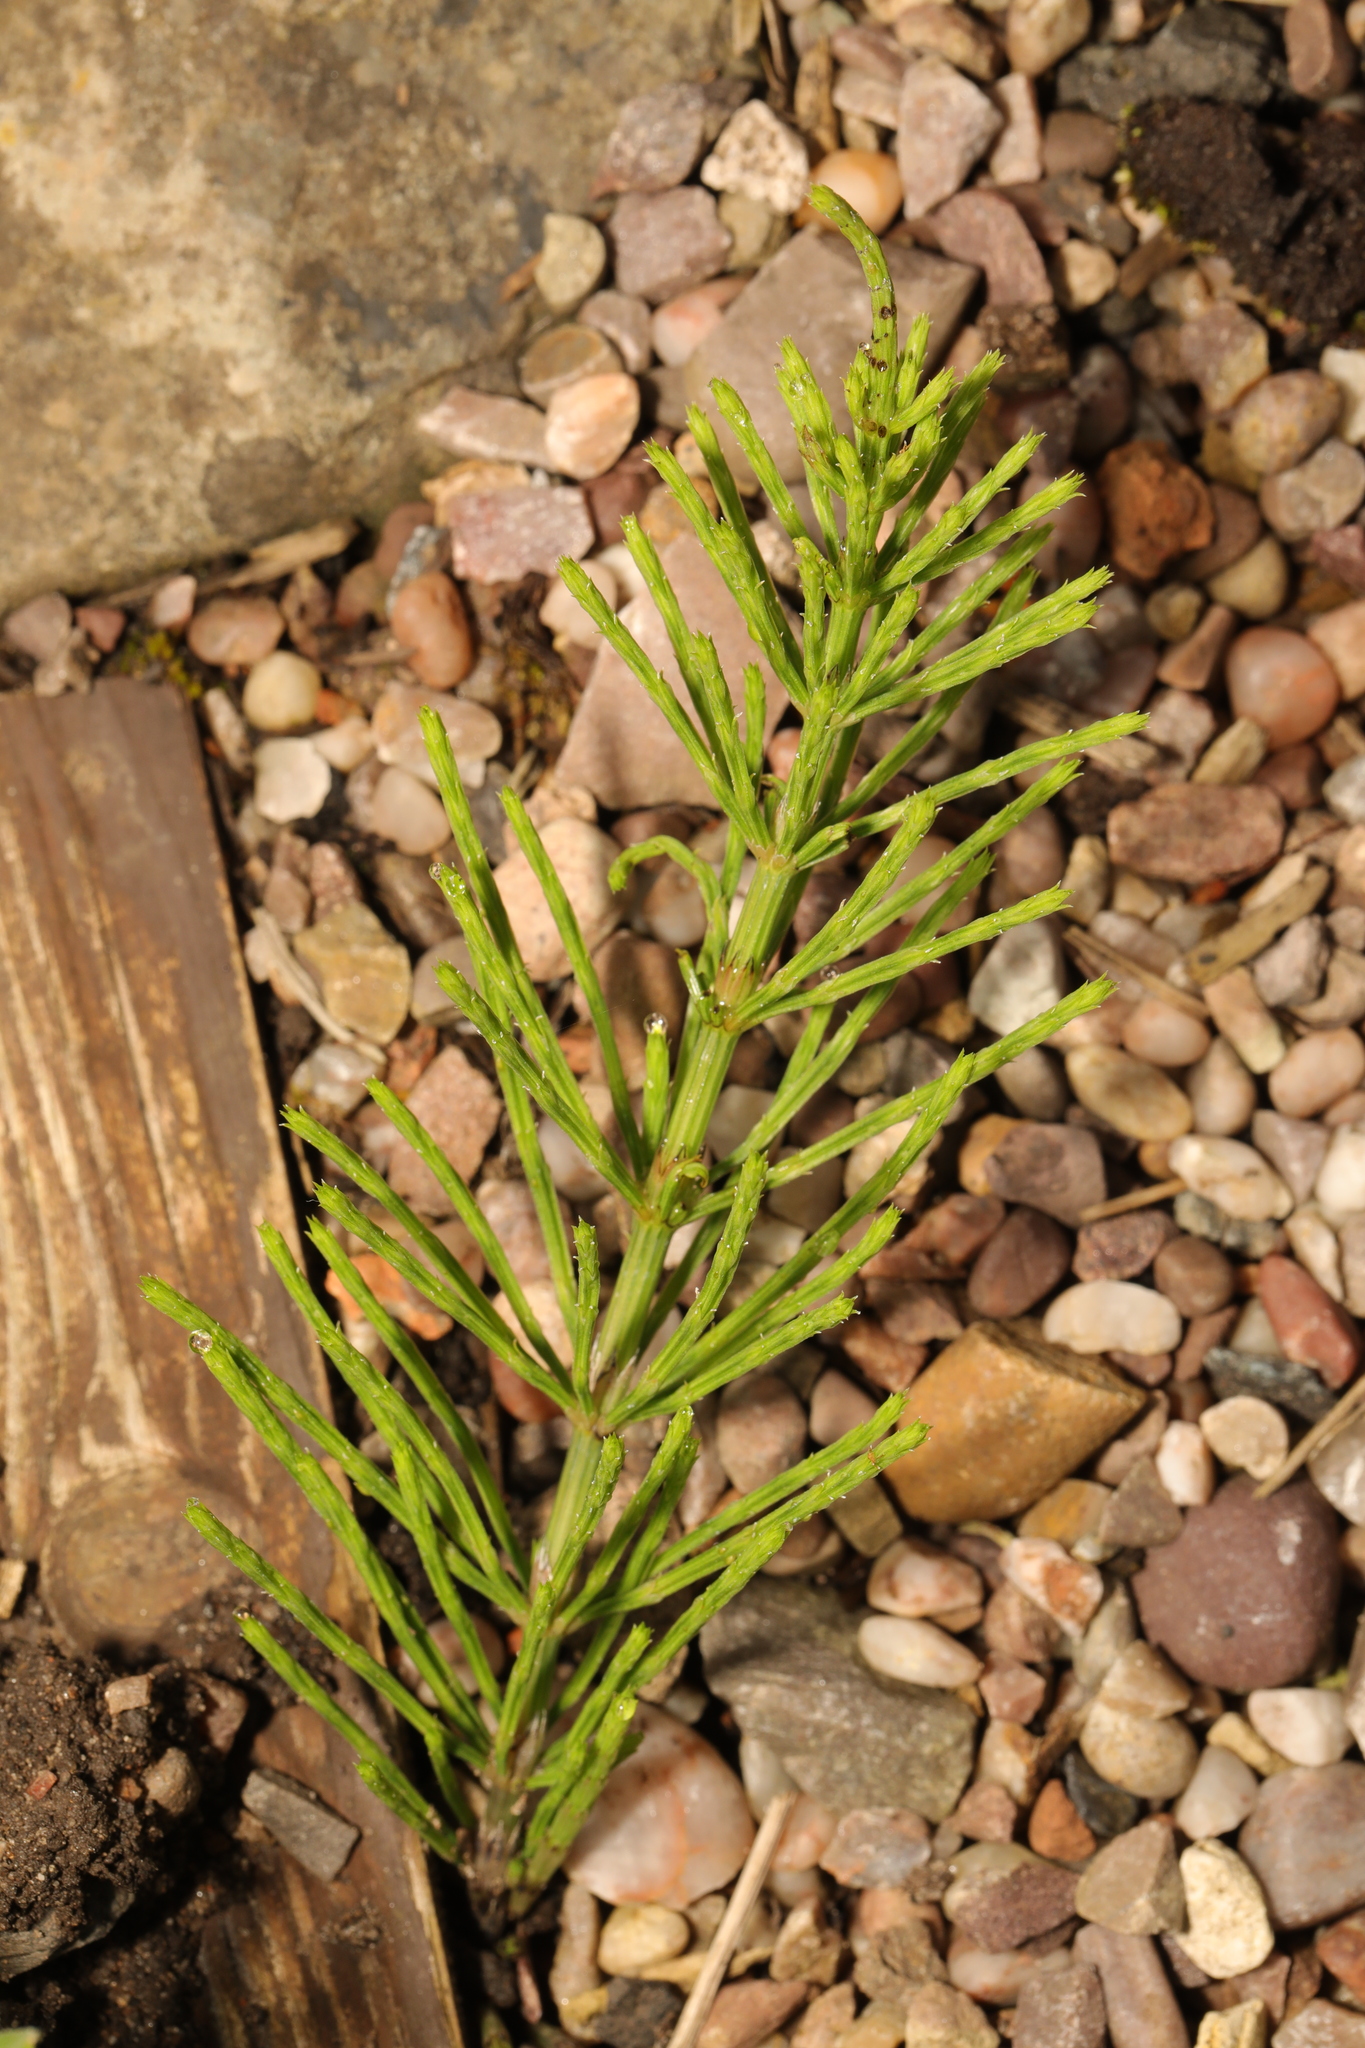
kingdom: Plantae
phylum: Tracheophyta
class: Polypodiopsida
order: Equisetales
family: Equisetaceae
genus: Equisetum
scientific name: Equisetum arvense
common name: Field horsetail
